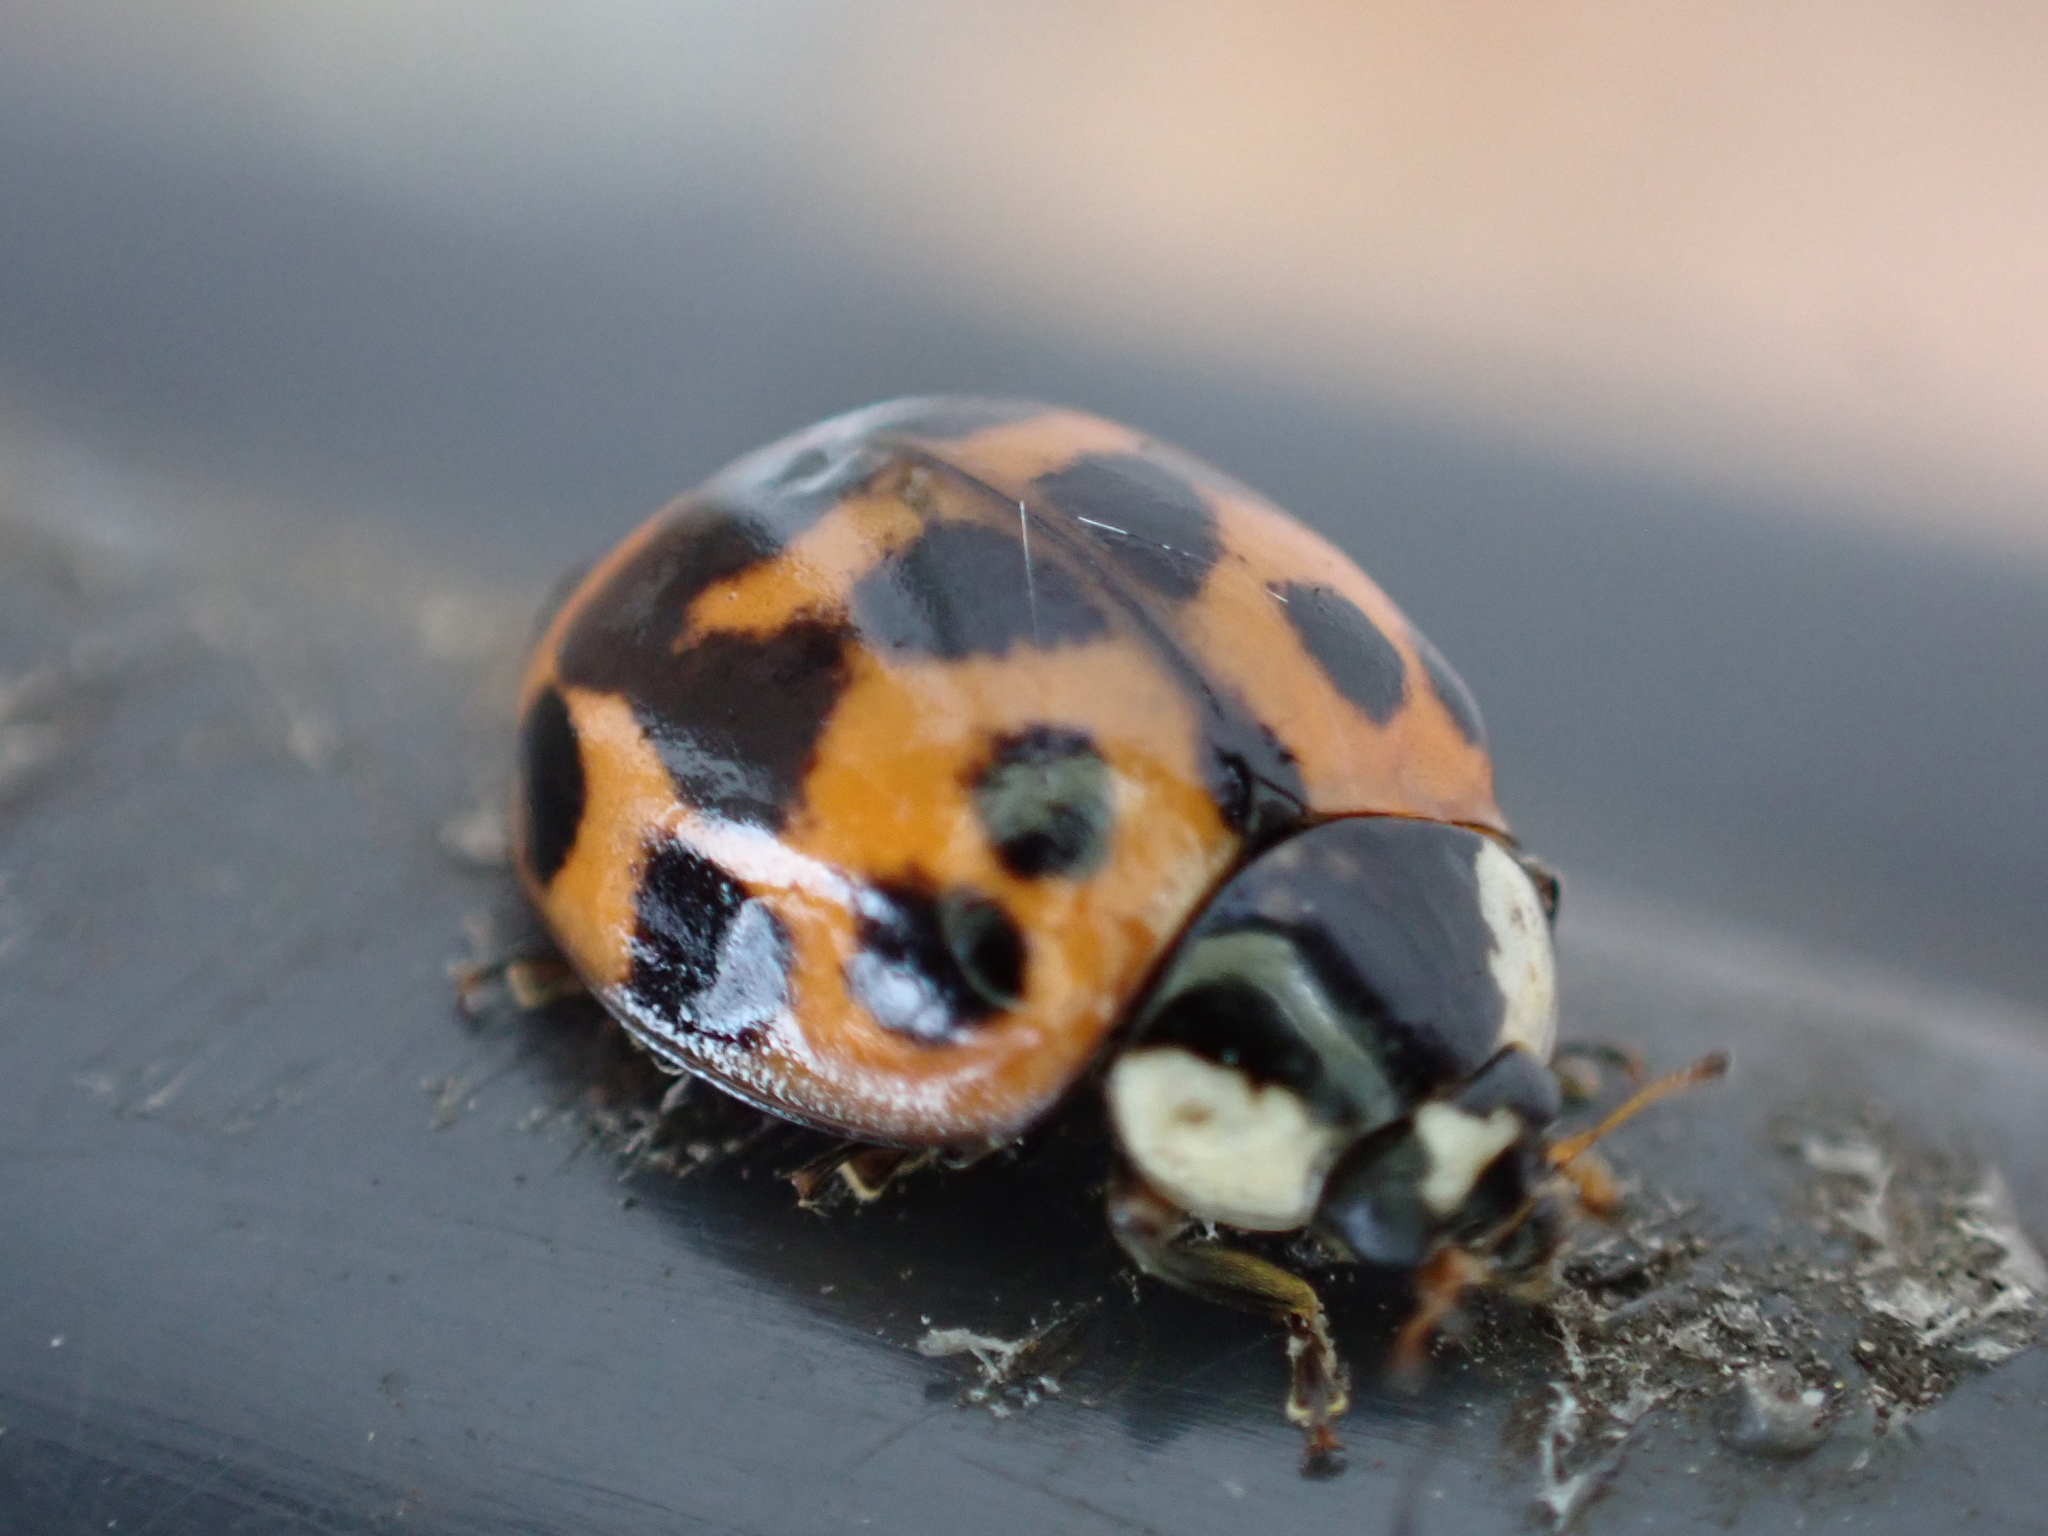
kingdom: Animalia
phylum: Arthropoda
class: Insecta
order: Coleoptera
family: Coccinellidae
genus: Harmonia
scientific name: Harmonia axyridis
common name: Harlequin ladybird
